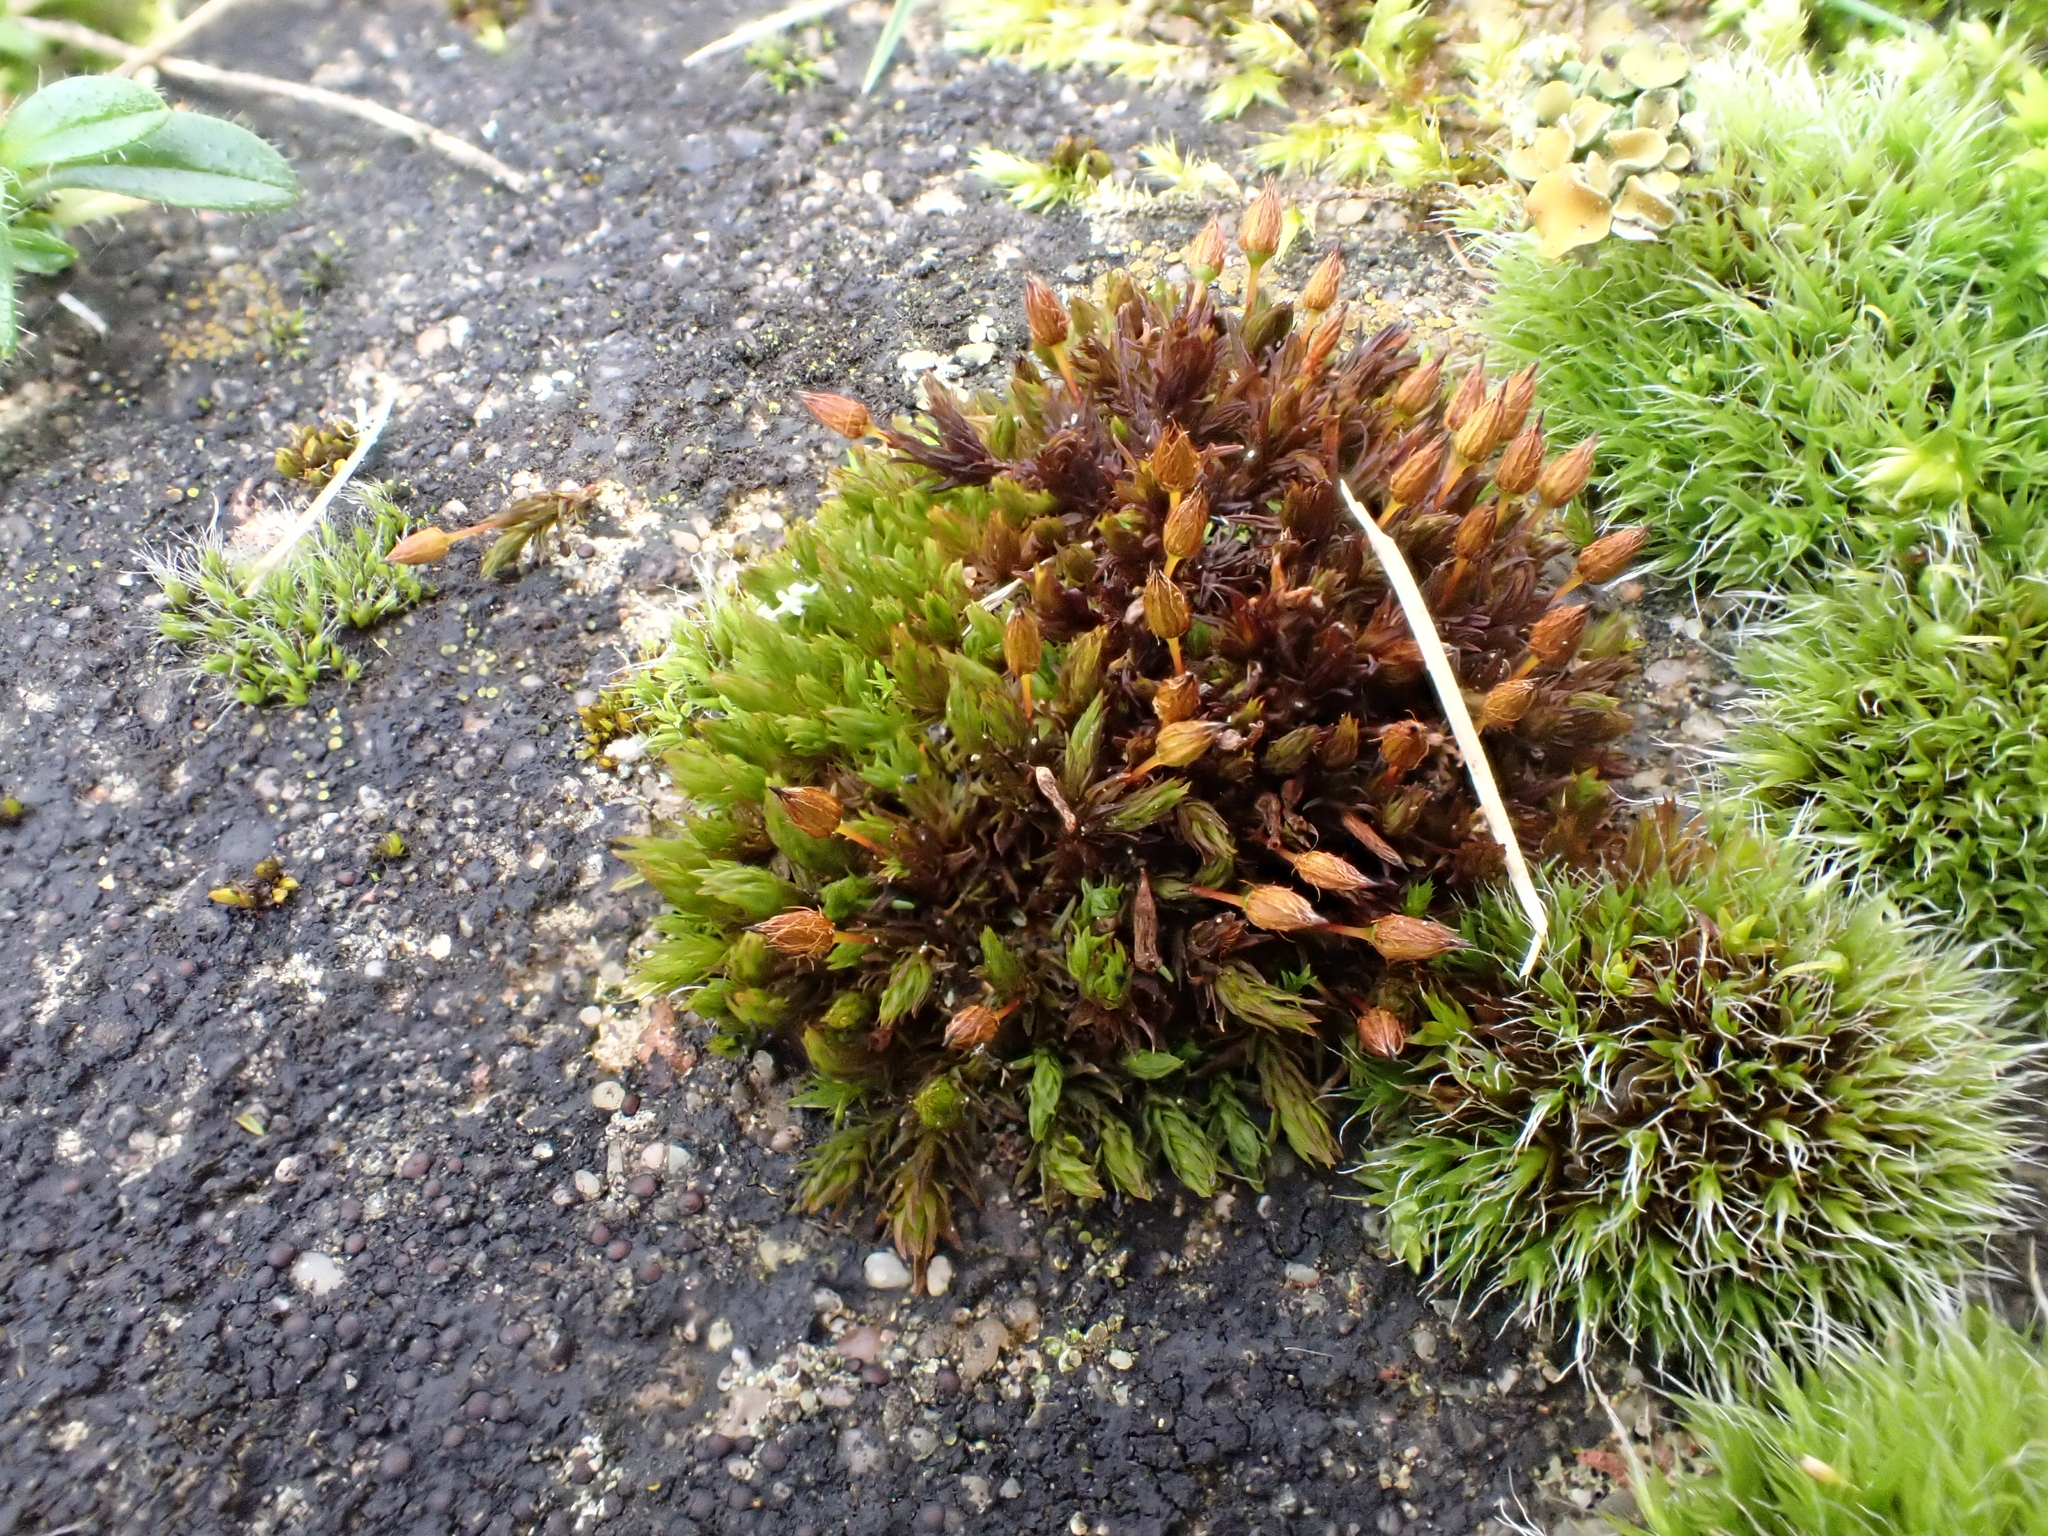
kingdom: Plantae
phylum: Bryophyta
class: Bryopsida
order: Orthotrichales
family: Orthotrichaceae
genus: Orthotrichum
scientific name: Orthotrichum anomalum
